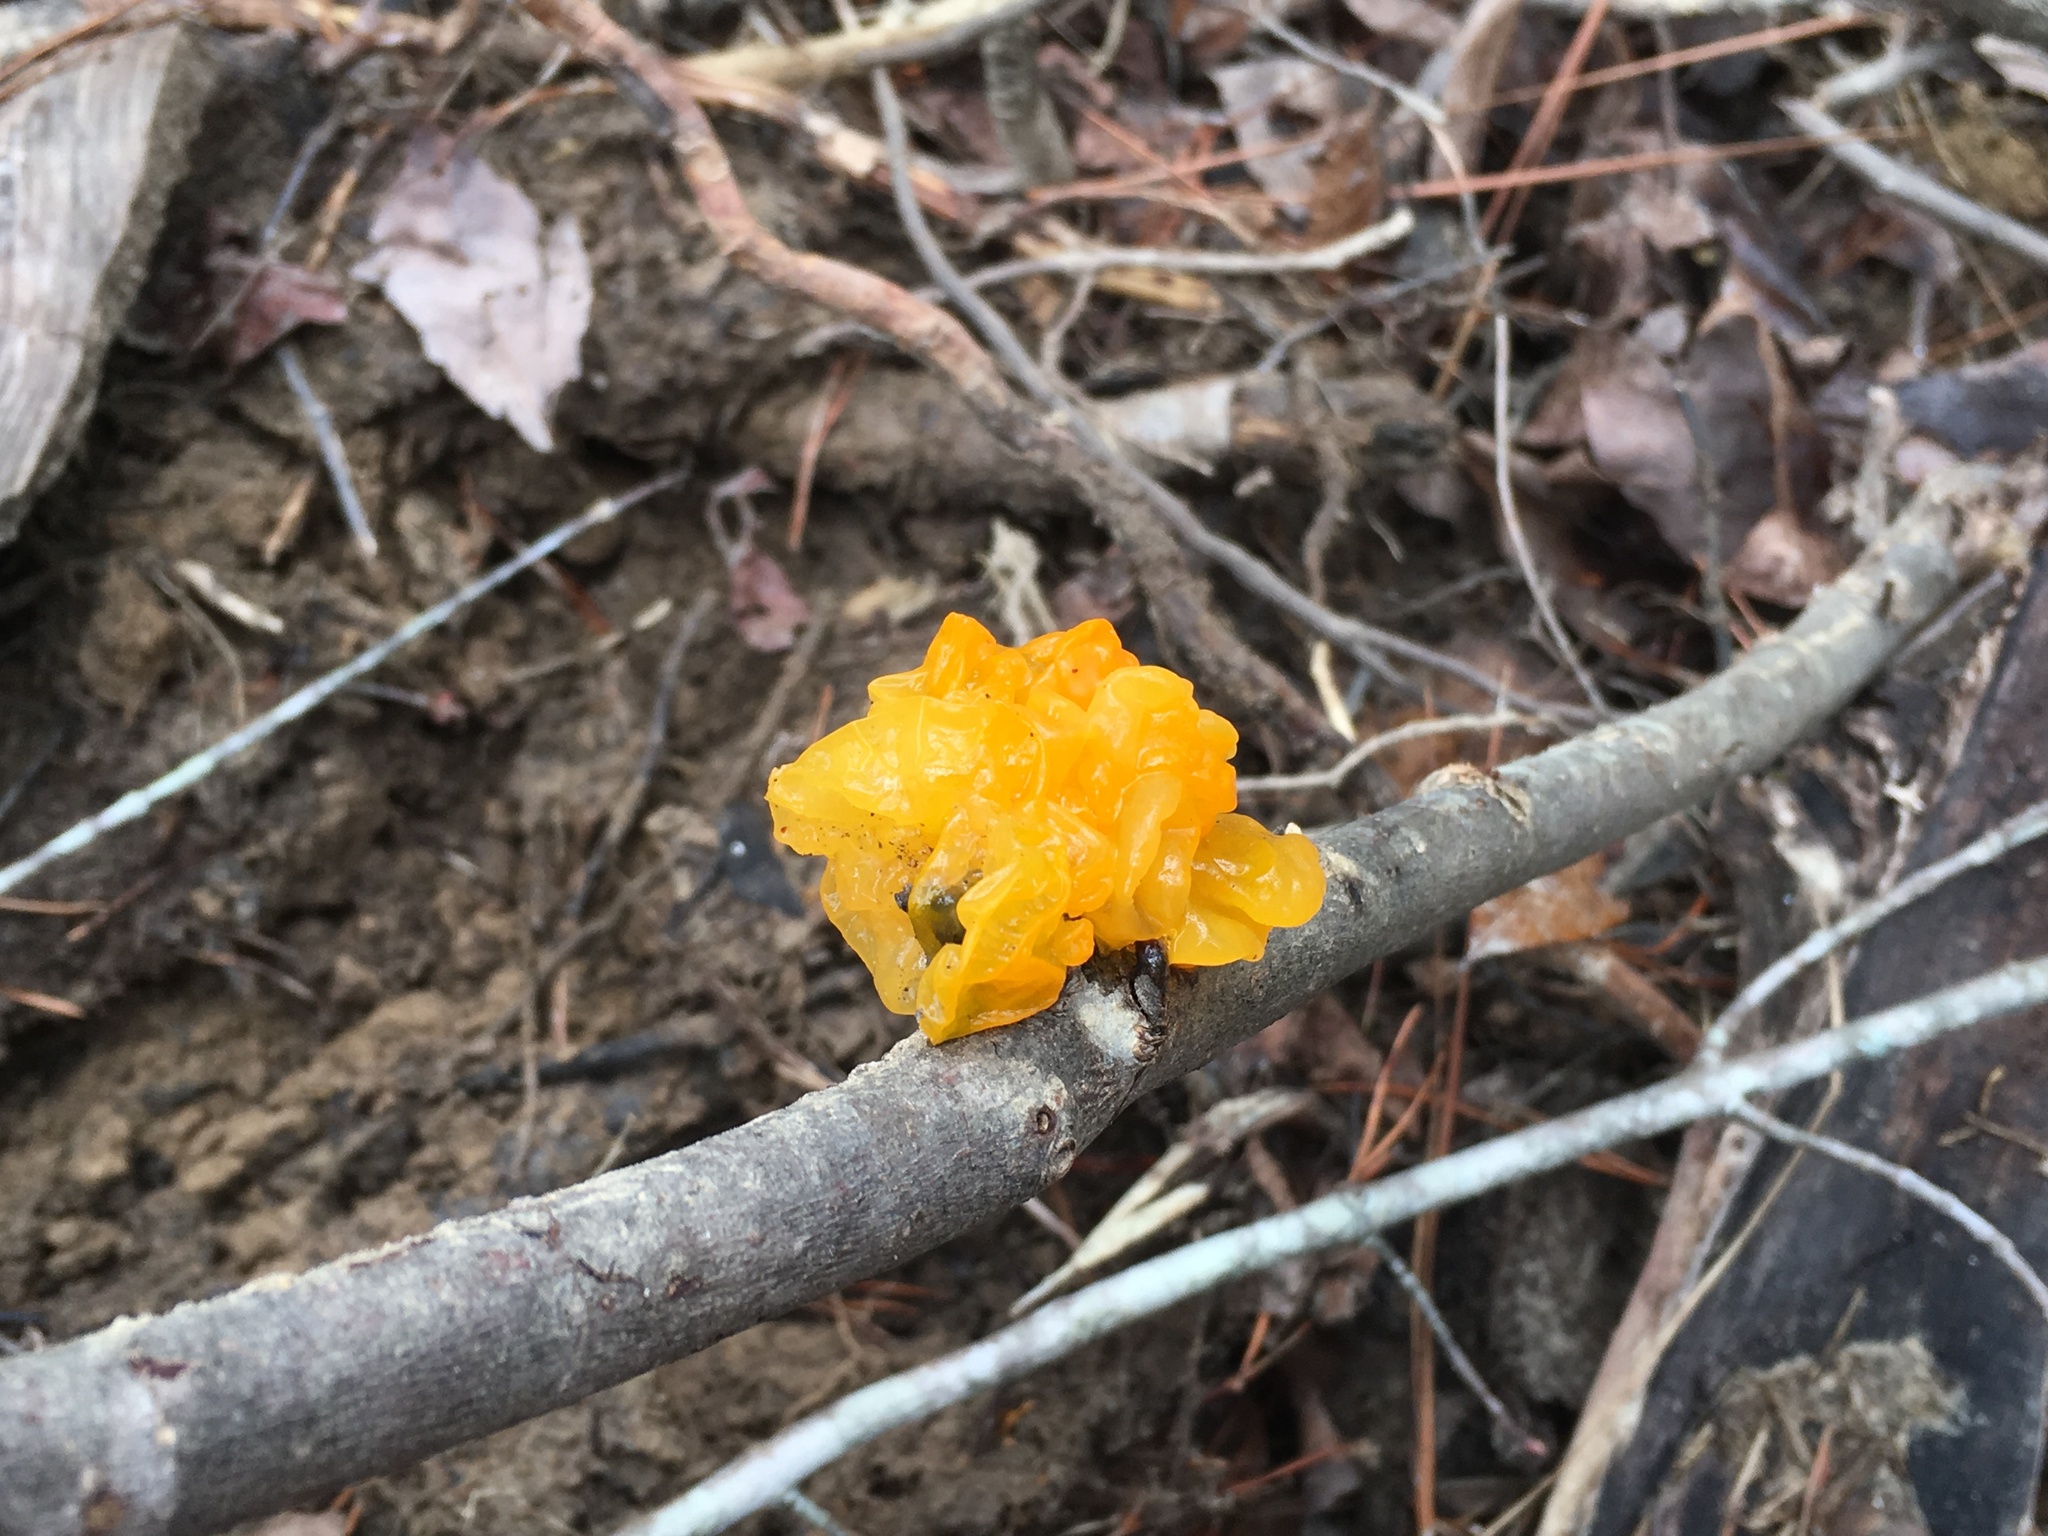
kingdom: Fungi
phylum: Basidiomycota
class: Tremellomycetes
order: Tremellales
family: Tremellaceae
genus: Tremella
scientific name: Tremella mesenterica
